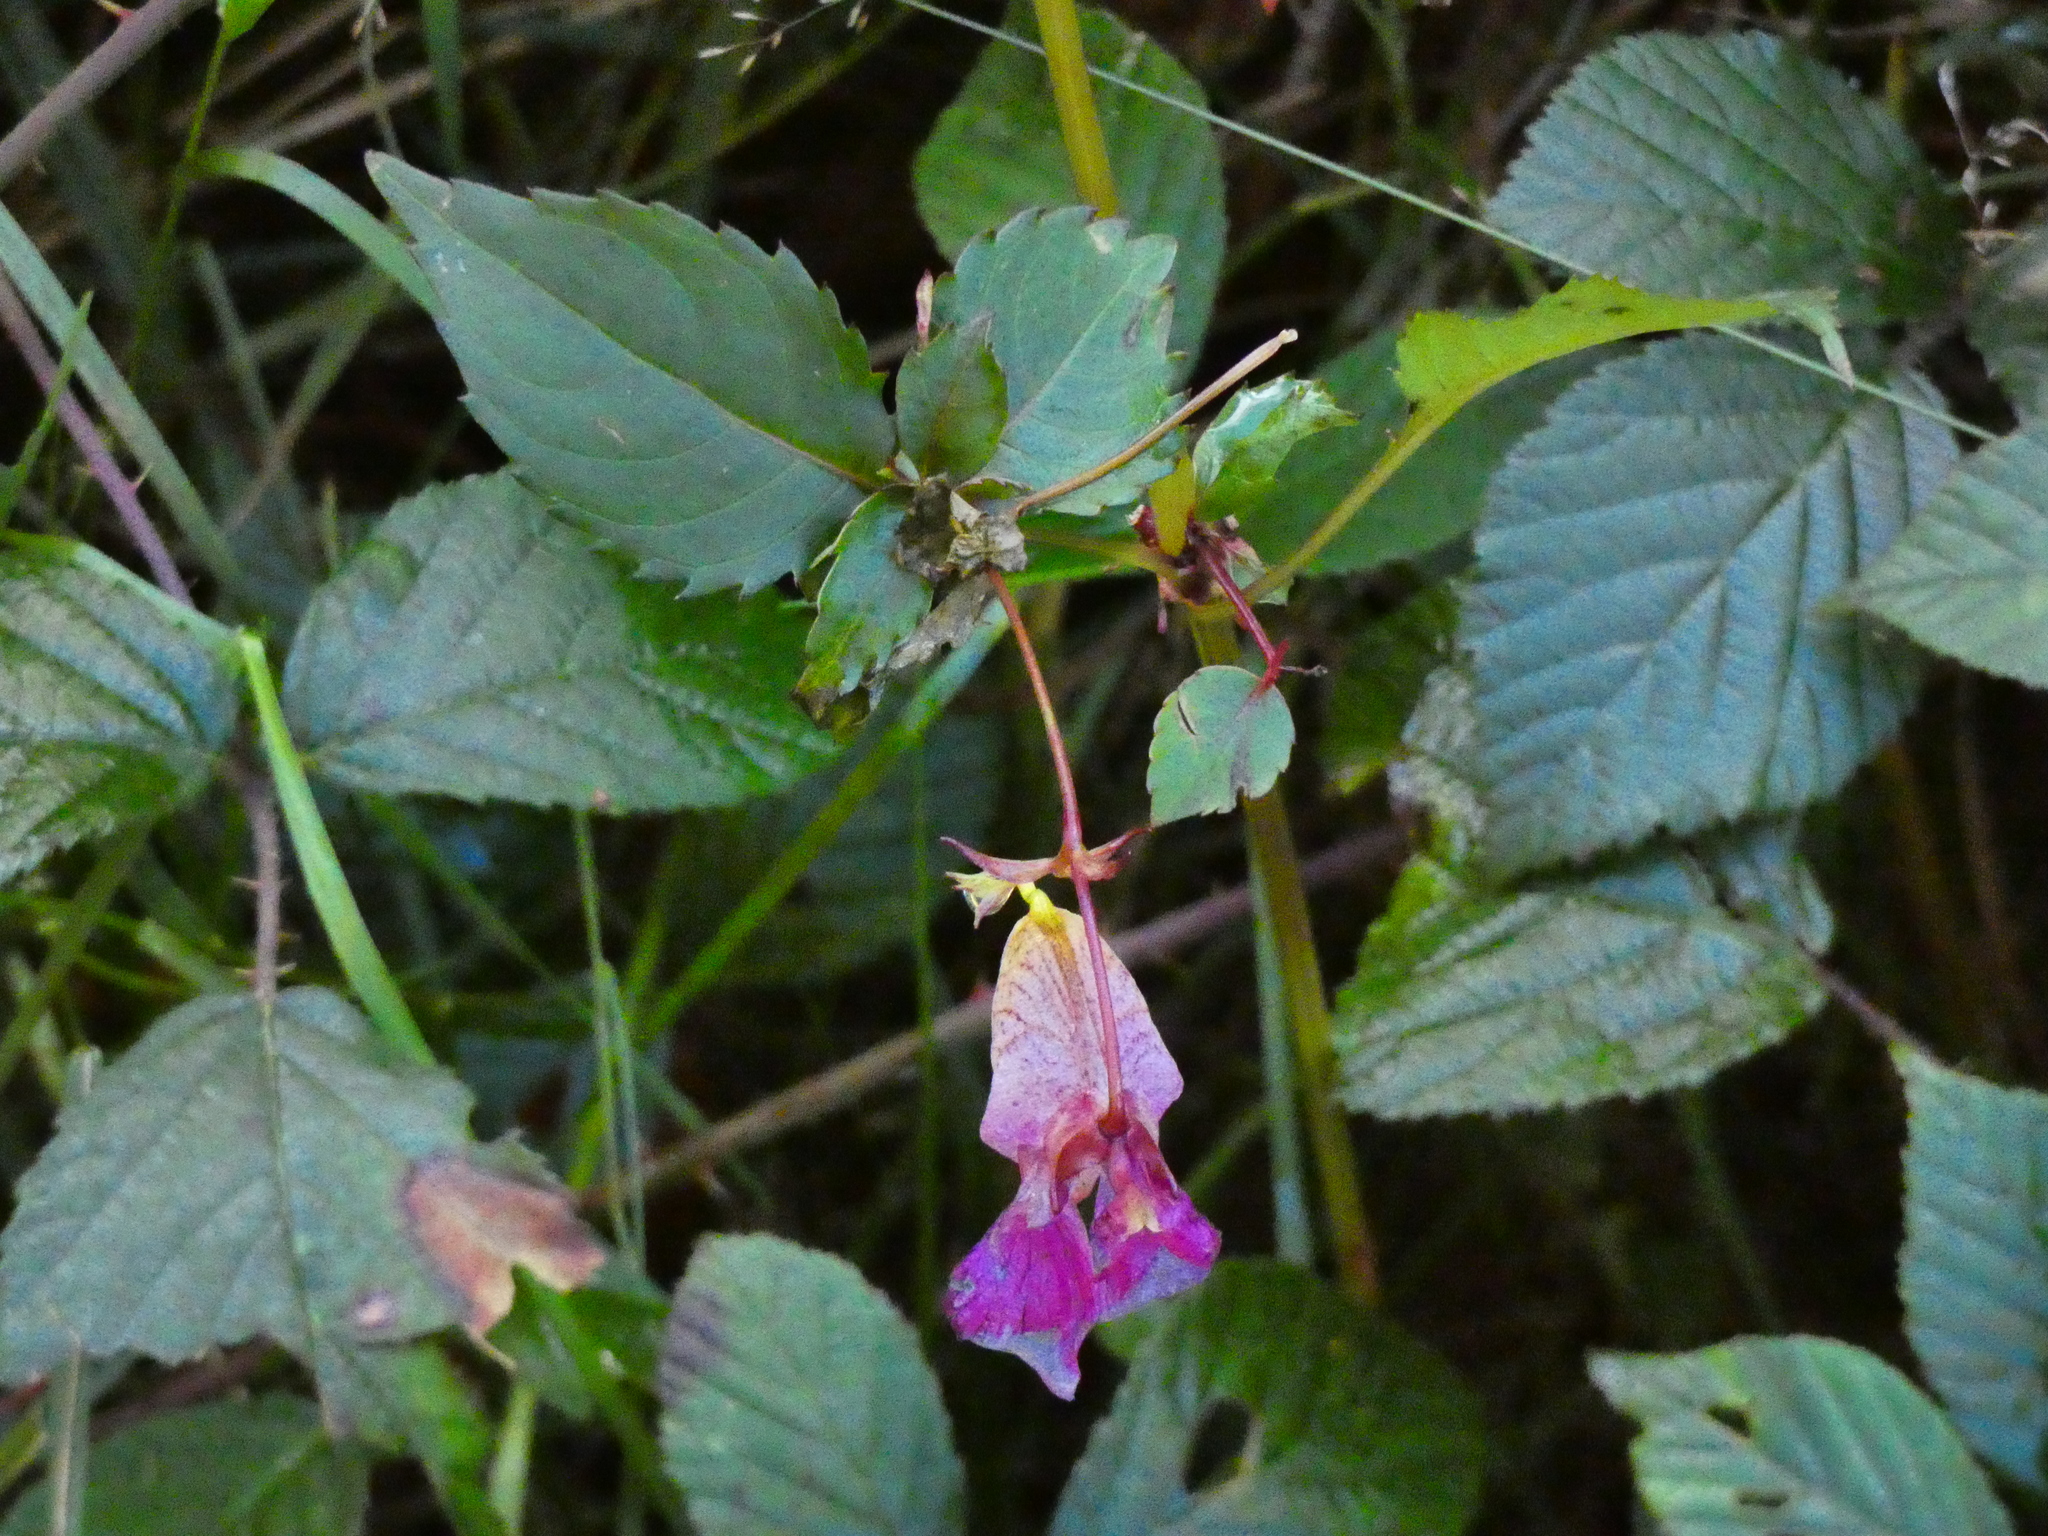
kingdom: Plantae
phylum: Tracheophyta
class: Magnoliopsida
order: Ericales
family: Balsaminaceae
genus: Impatiens
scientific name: Impatiens glandulifera
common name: Himalayan balsam
